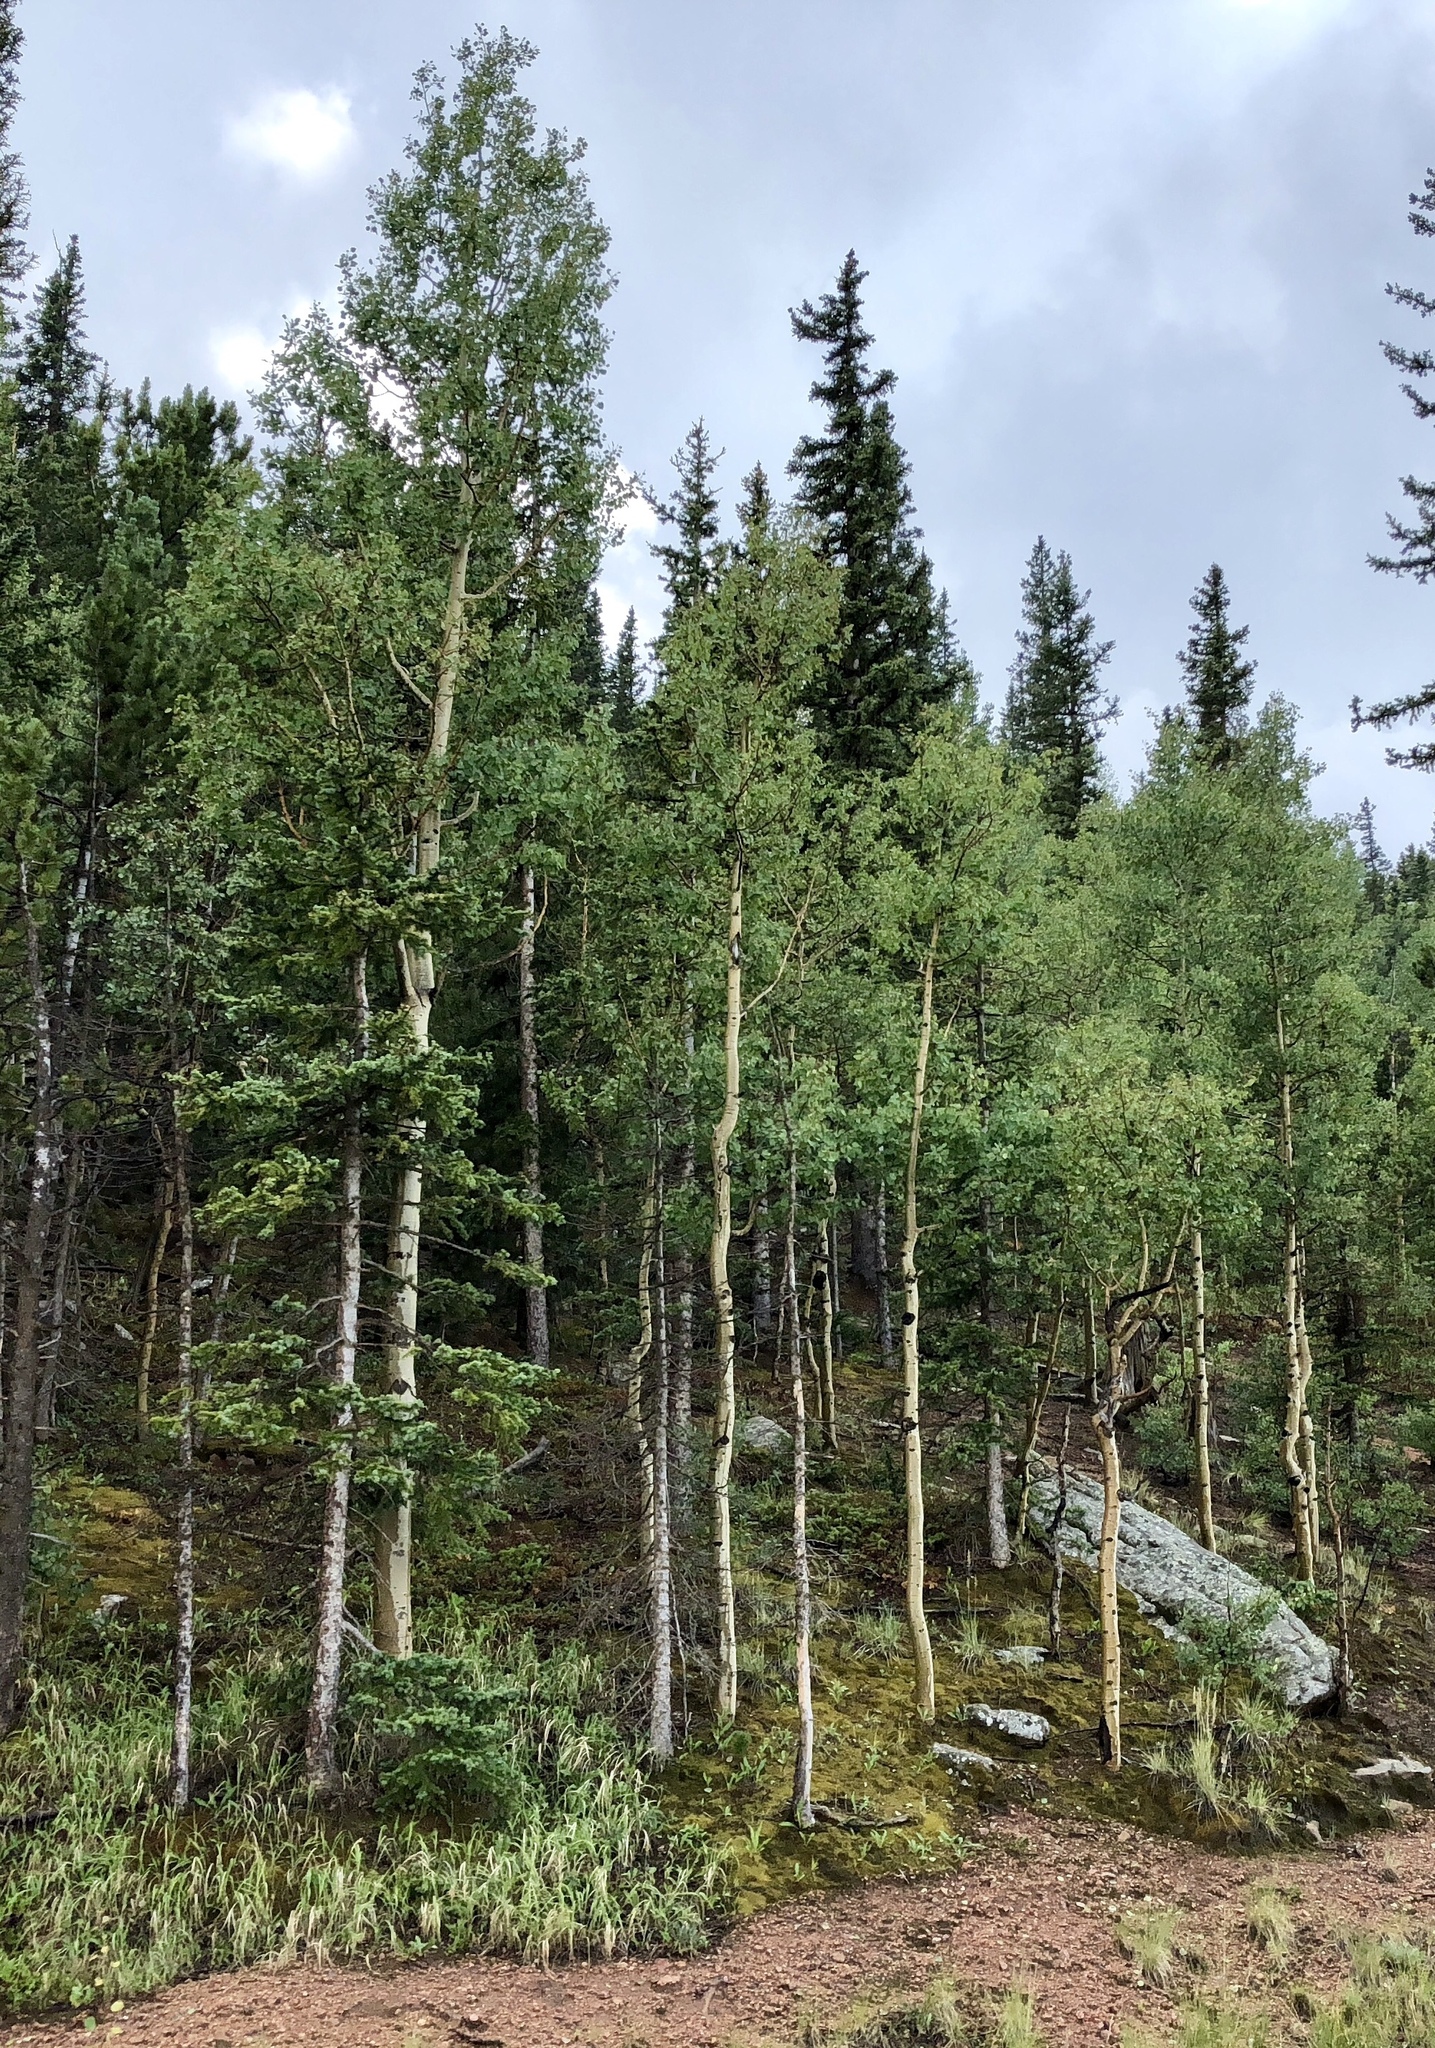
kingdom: Plantae
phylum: Tracheophyta
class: Magnoliopsida
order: Malpighiales
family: Salicaceae
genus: Populus
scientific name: Populus tremuloides
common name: Quaking aspen
